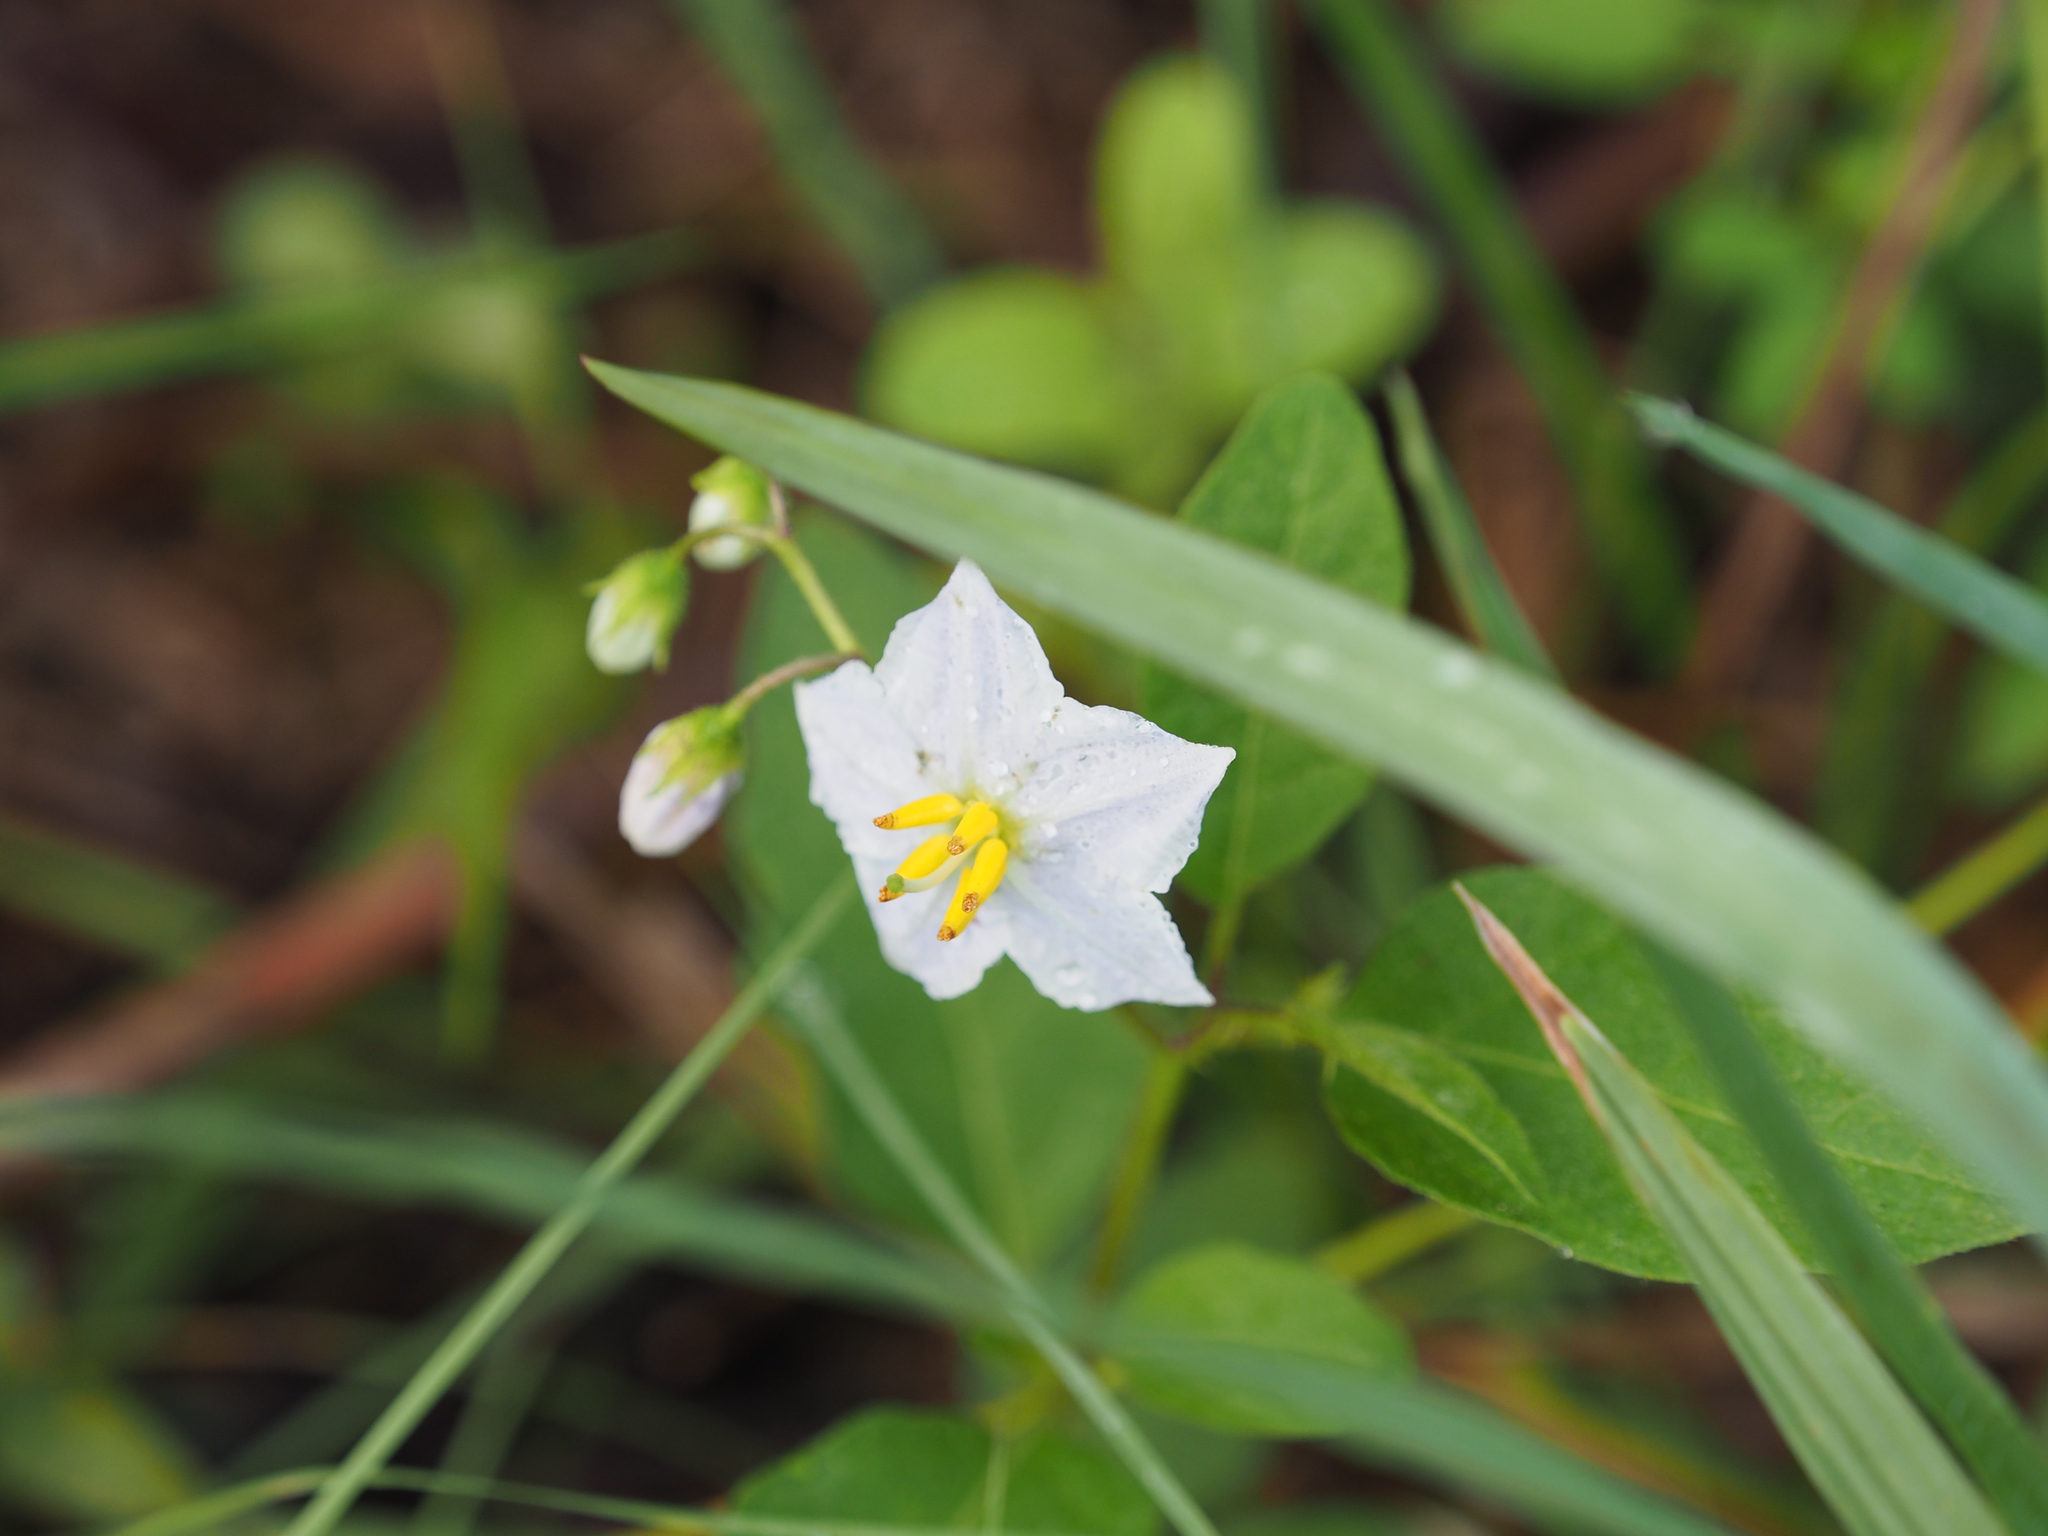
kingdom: Plantae
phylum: Tracheophyta
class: Magnoliopsida
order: Solanales
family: Solanaceae
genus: Solanum
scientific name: Solanum carolinense
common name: Horse-nettle
